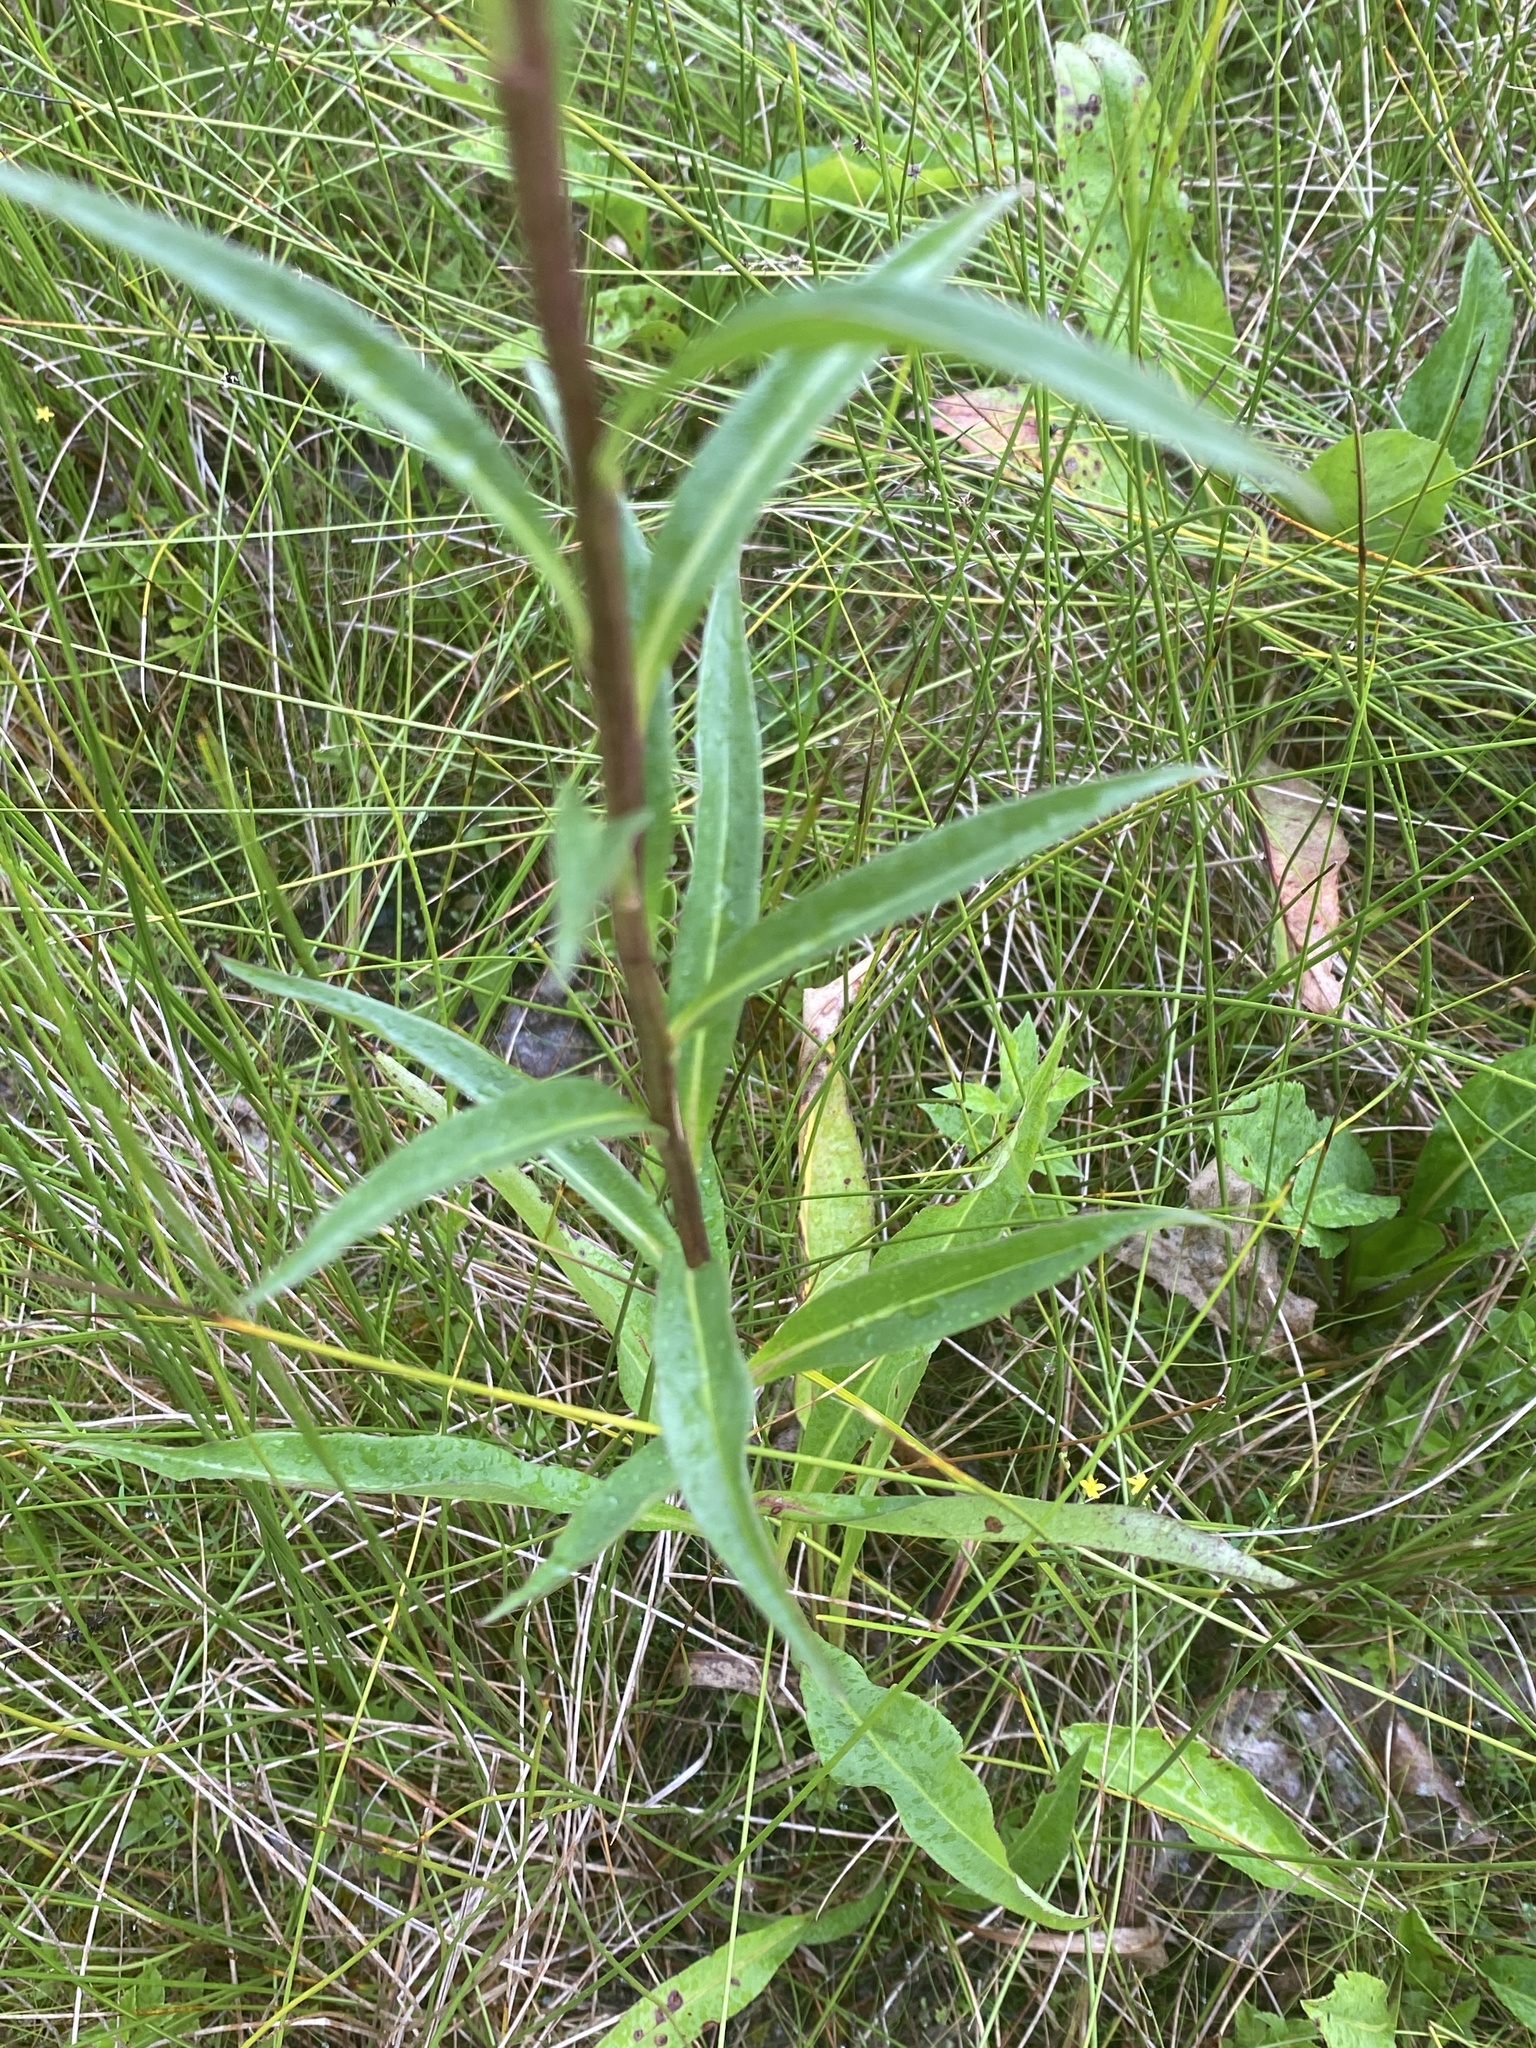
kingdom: Plantae
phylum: Tracheophyta
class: Magnoliopsida
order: Asterales
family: Asteraceae
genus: Solidago
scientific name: Solidago uliginosa
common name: Bog goldenrod
